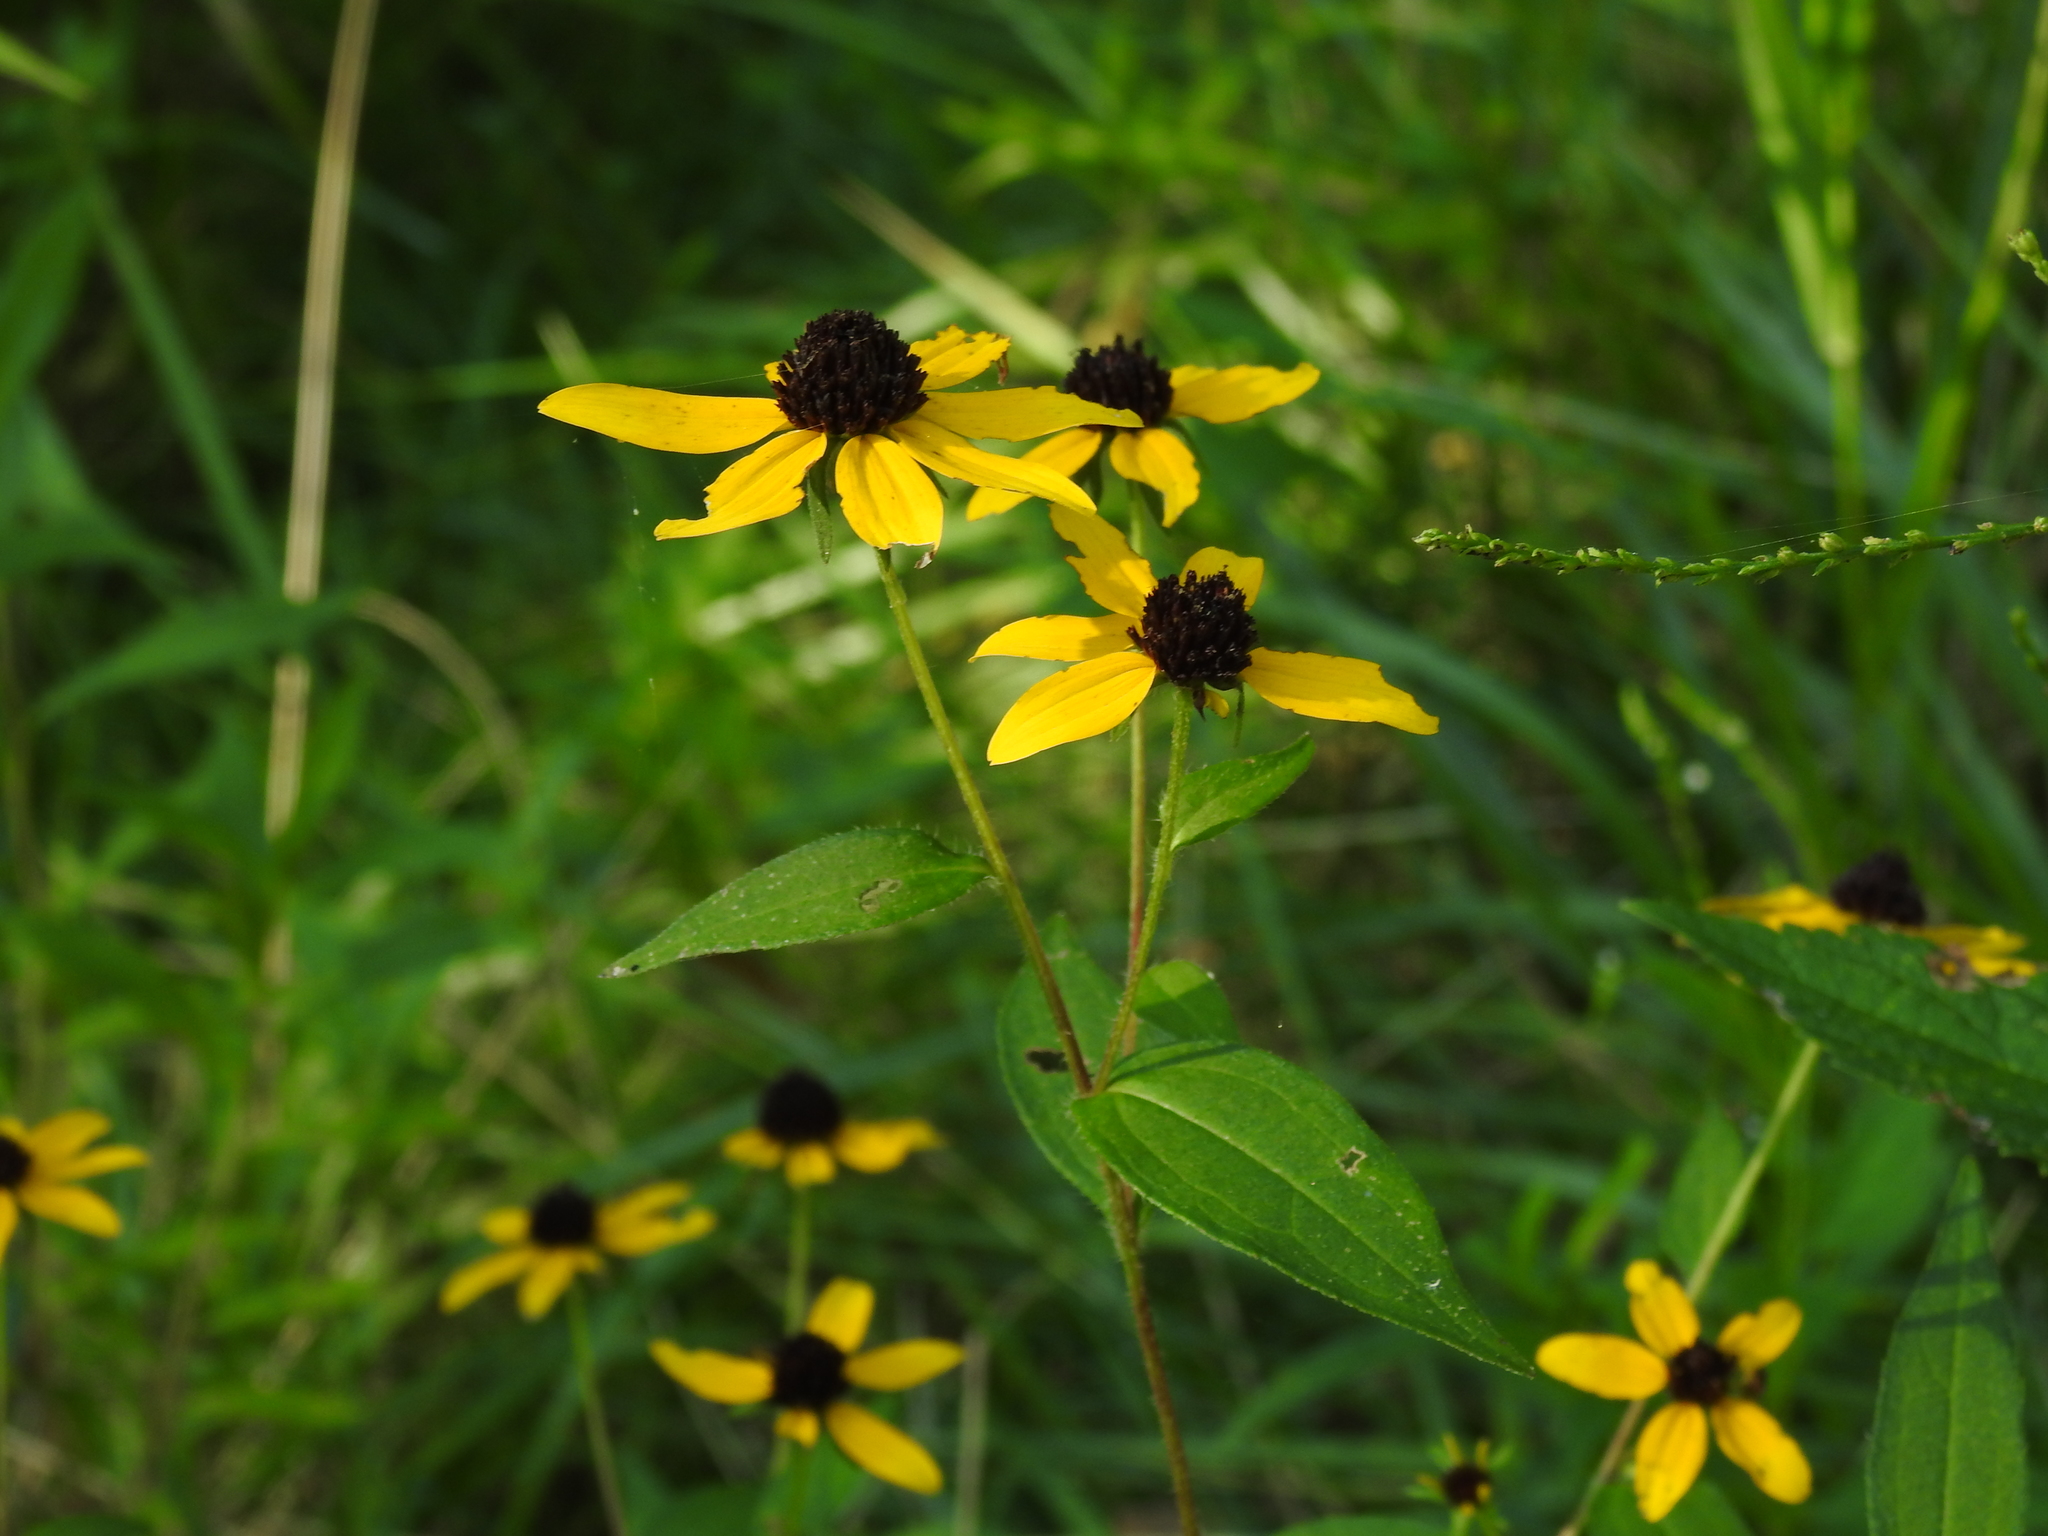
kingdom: Plantae
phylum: Tracheophyta
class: Magnoliopsida
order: Asterales
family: Asteraceae
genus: Rudbeckia
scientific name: Rudbeckia triloba
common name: Thin-leaved coneflower
